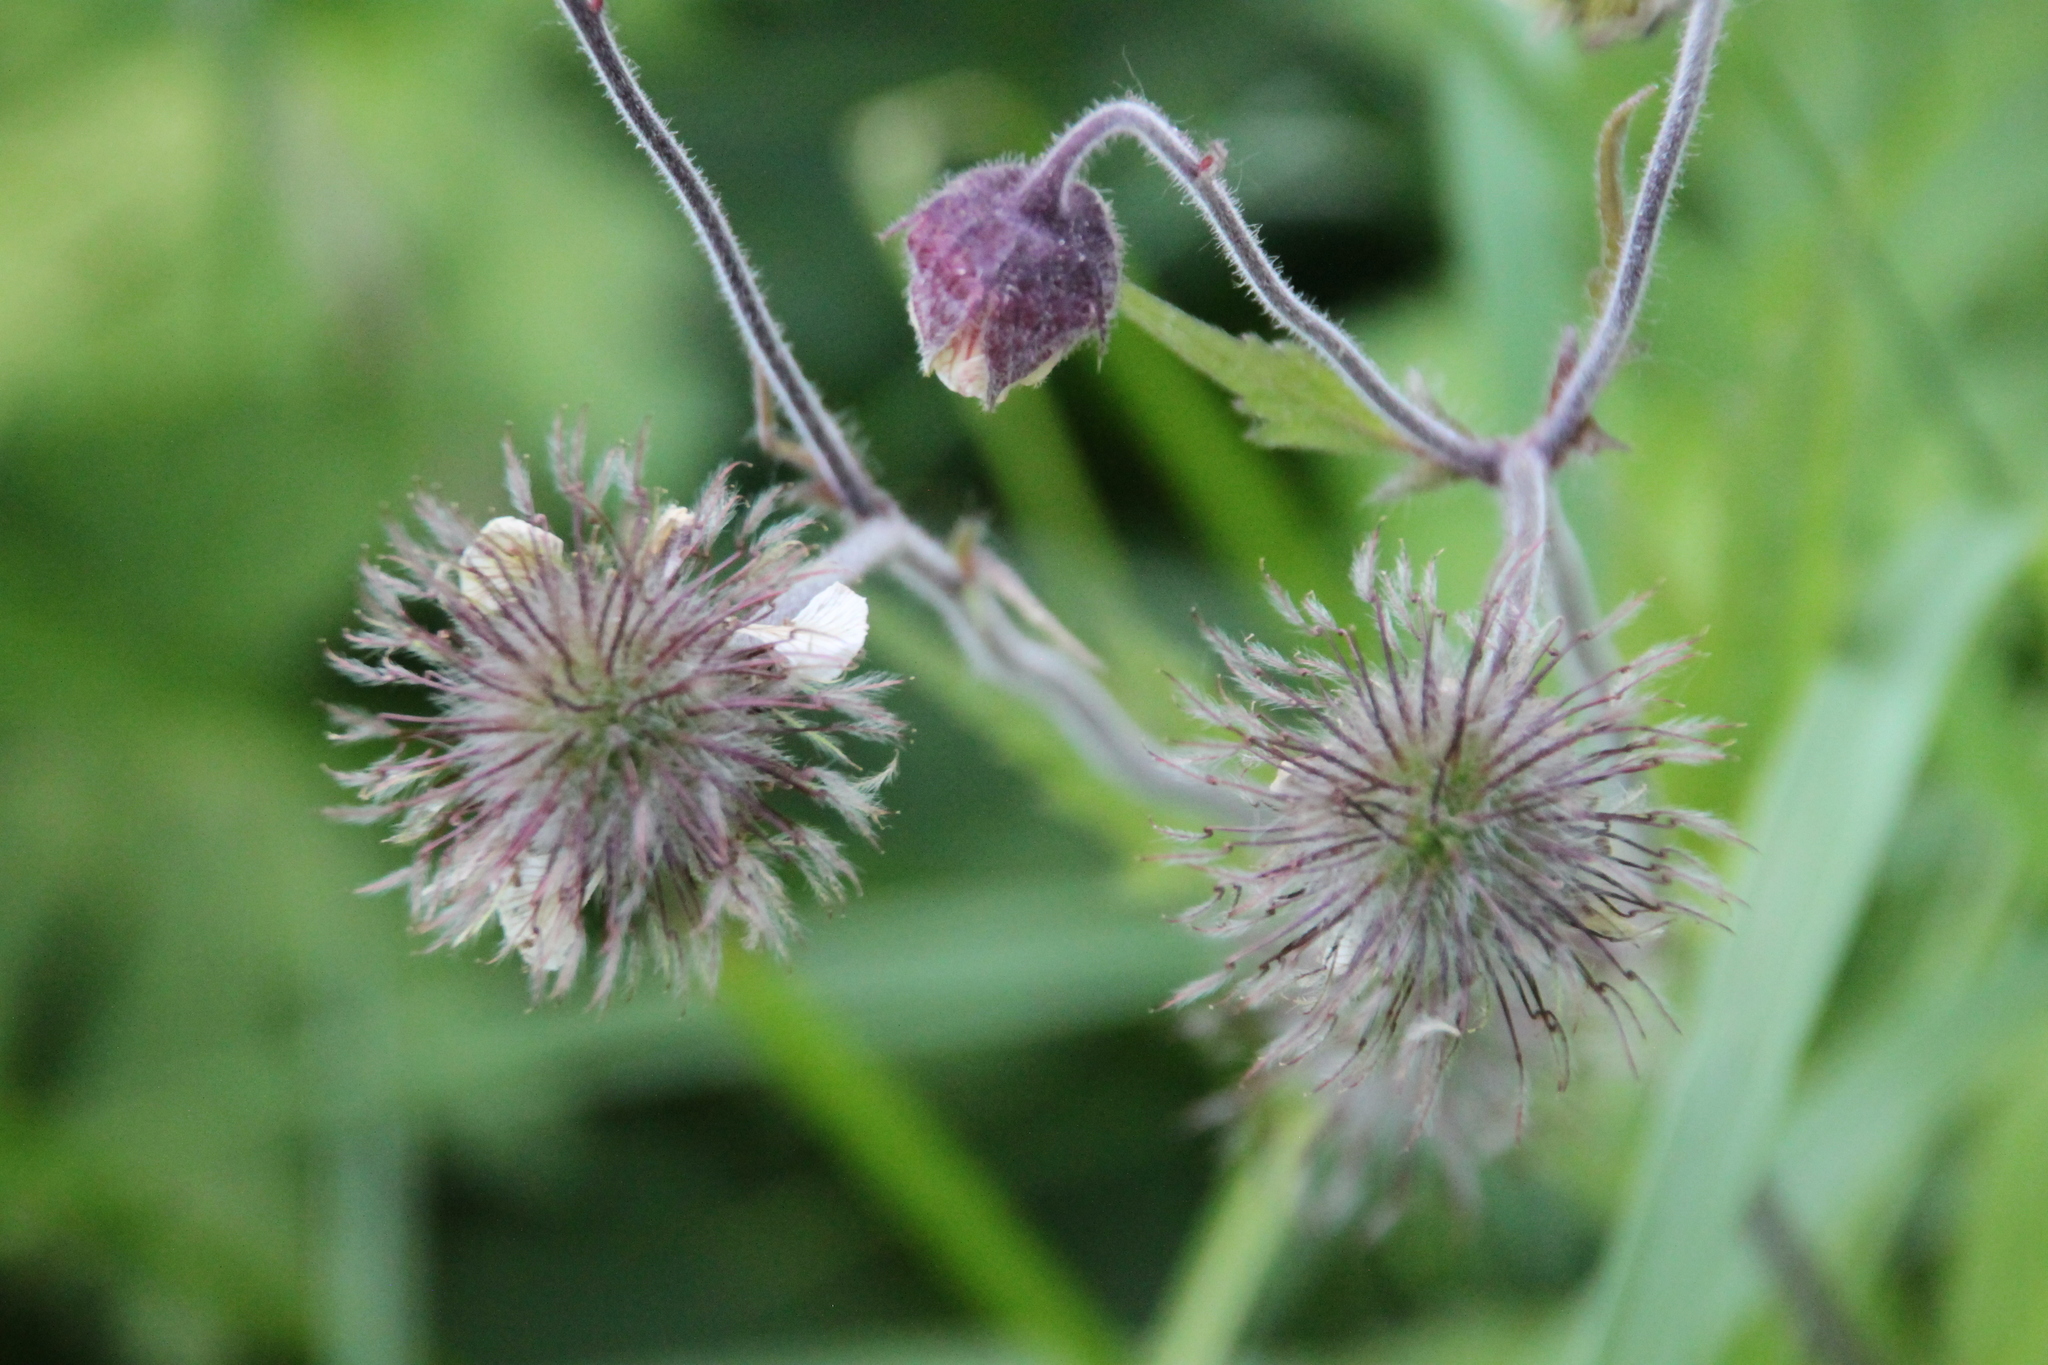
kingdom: Plantae
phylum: Tracheophyta
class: Magnoliopsida
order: Rosales
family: Rosaceae
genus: Geum
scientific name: Geum rivale
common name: Water avens
